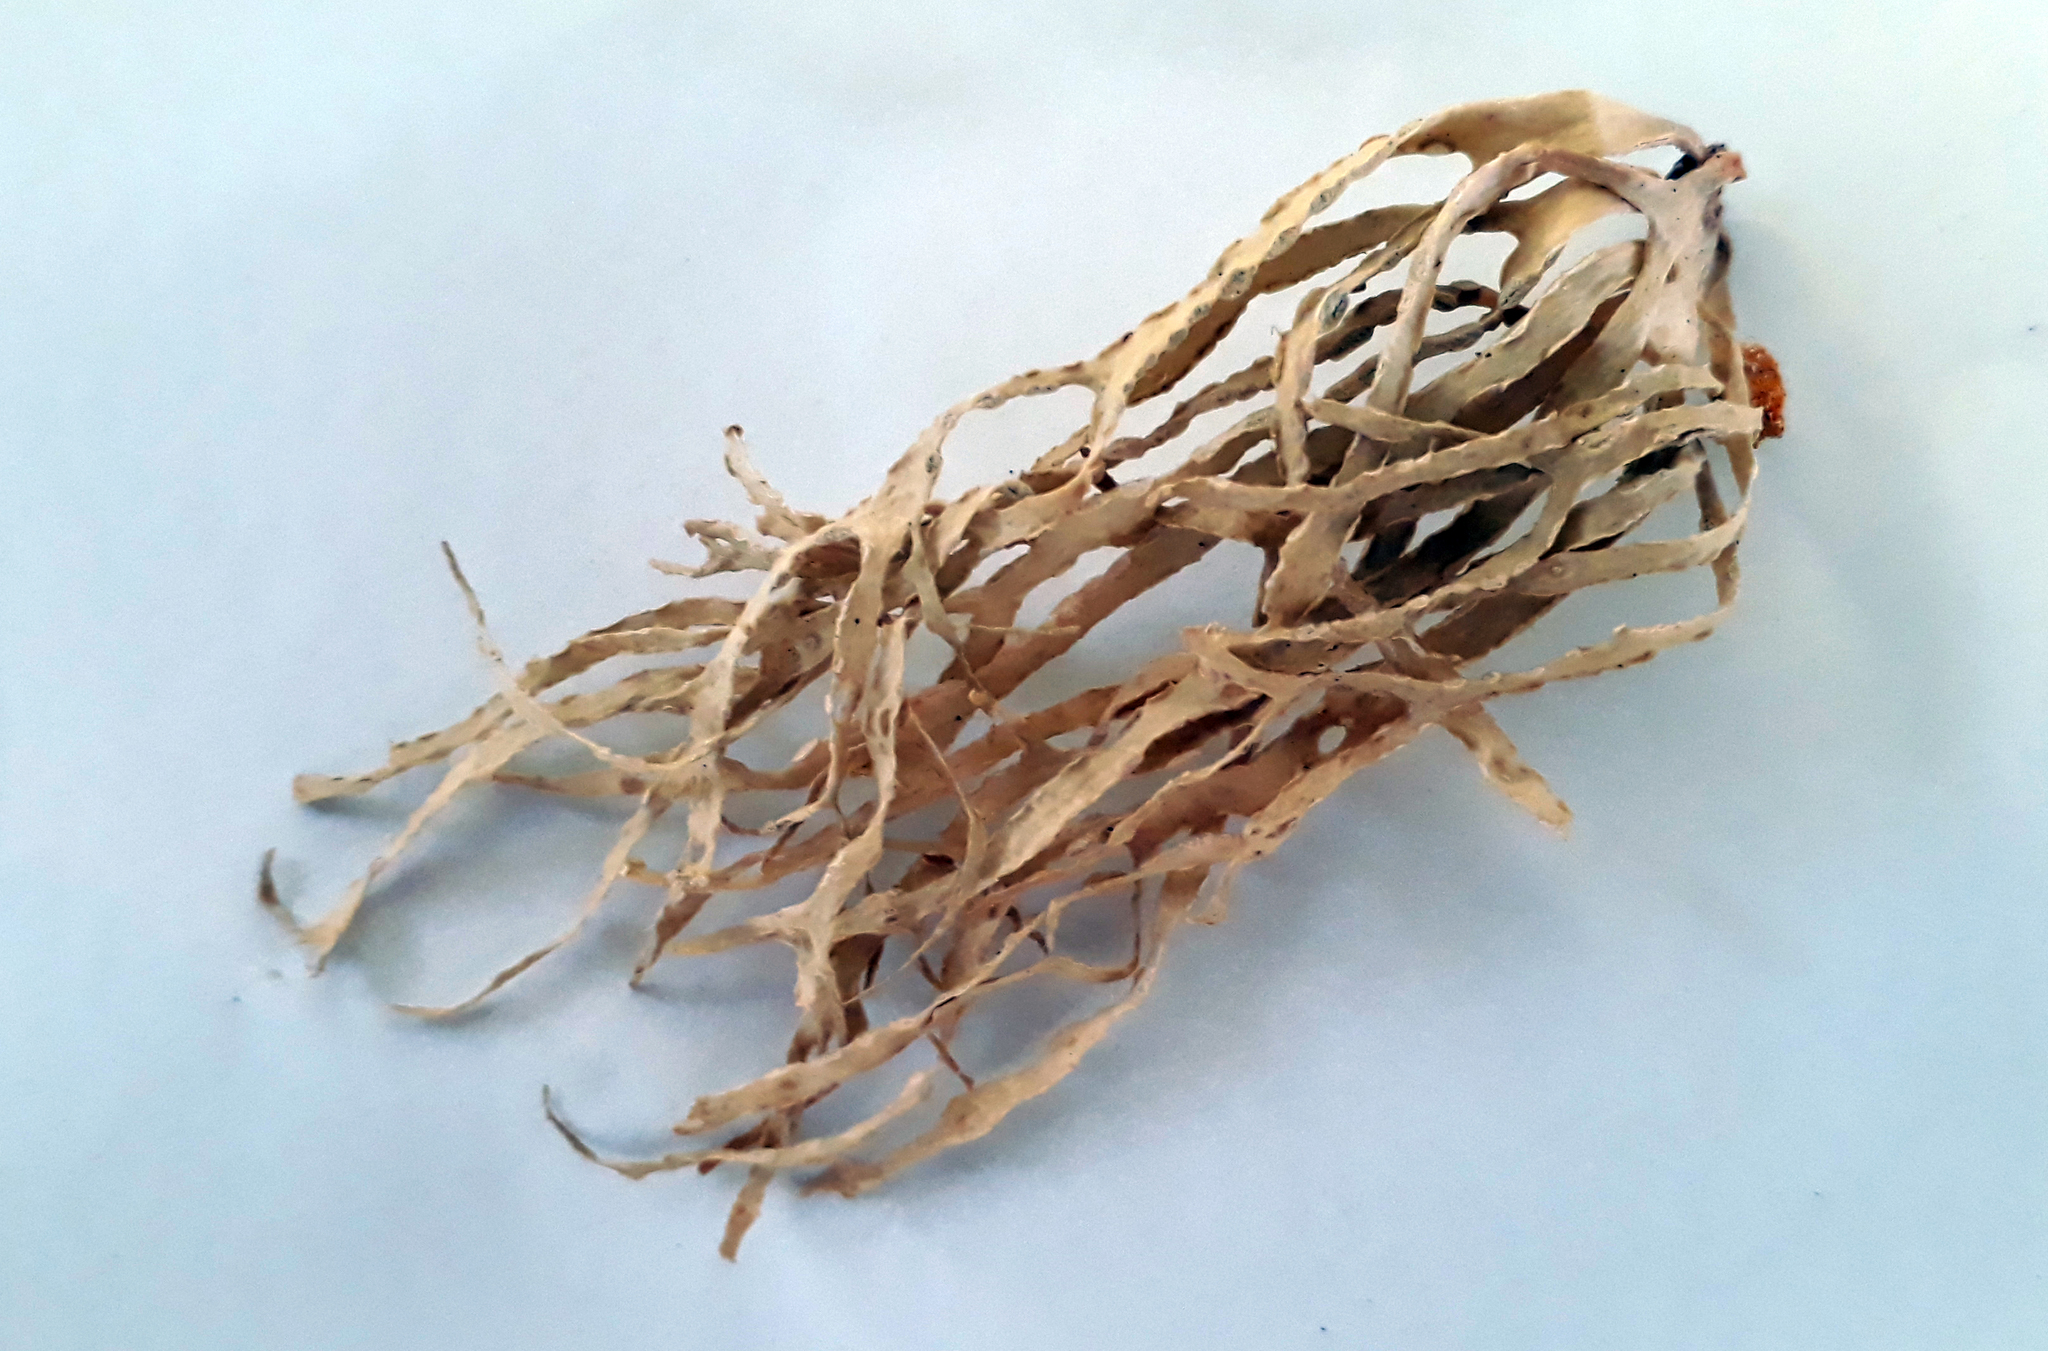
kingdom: Fungi
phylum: Ascomycota
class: Lecanoromycetes
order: Lecanorales
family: Ramalinaceae
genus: Ramalina
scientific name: Ramalina pacifica
